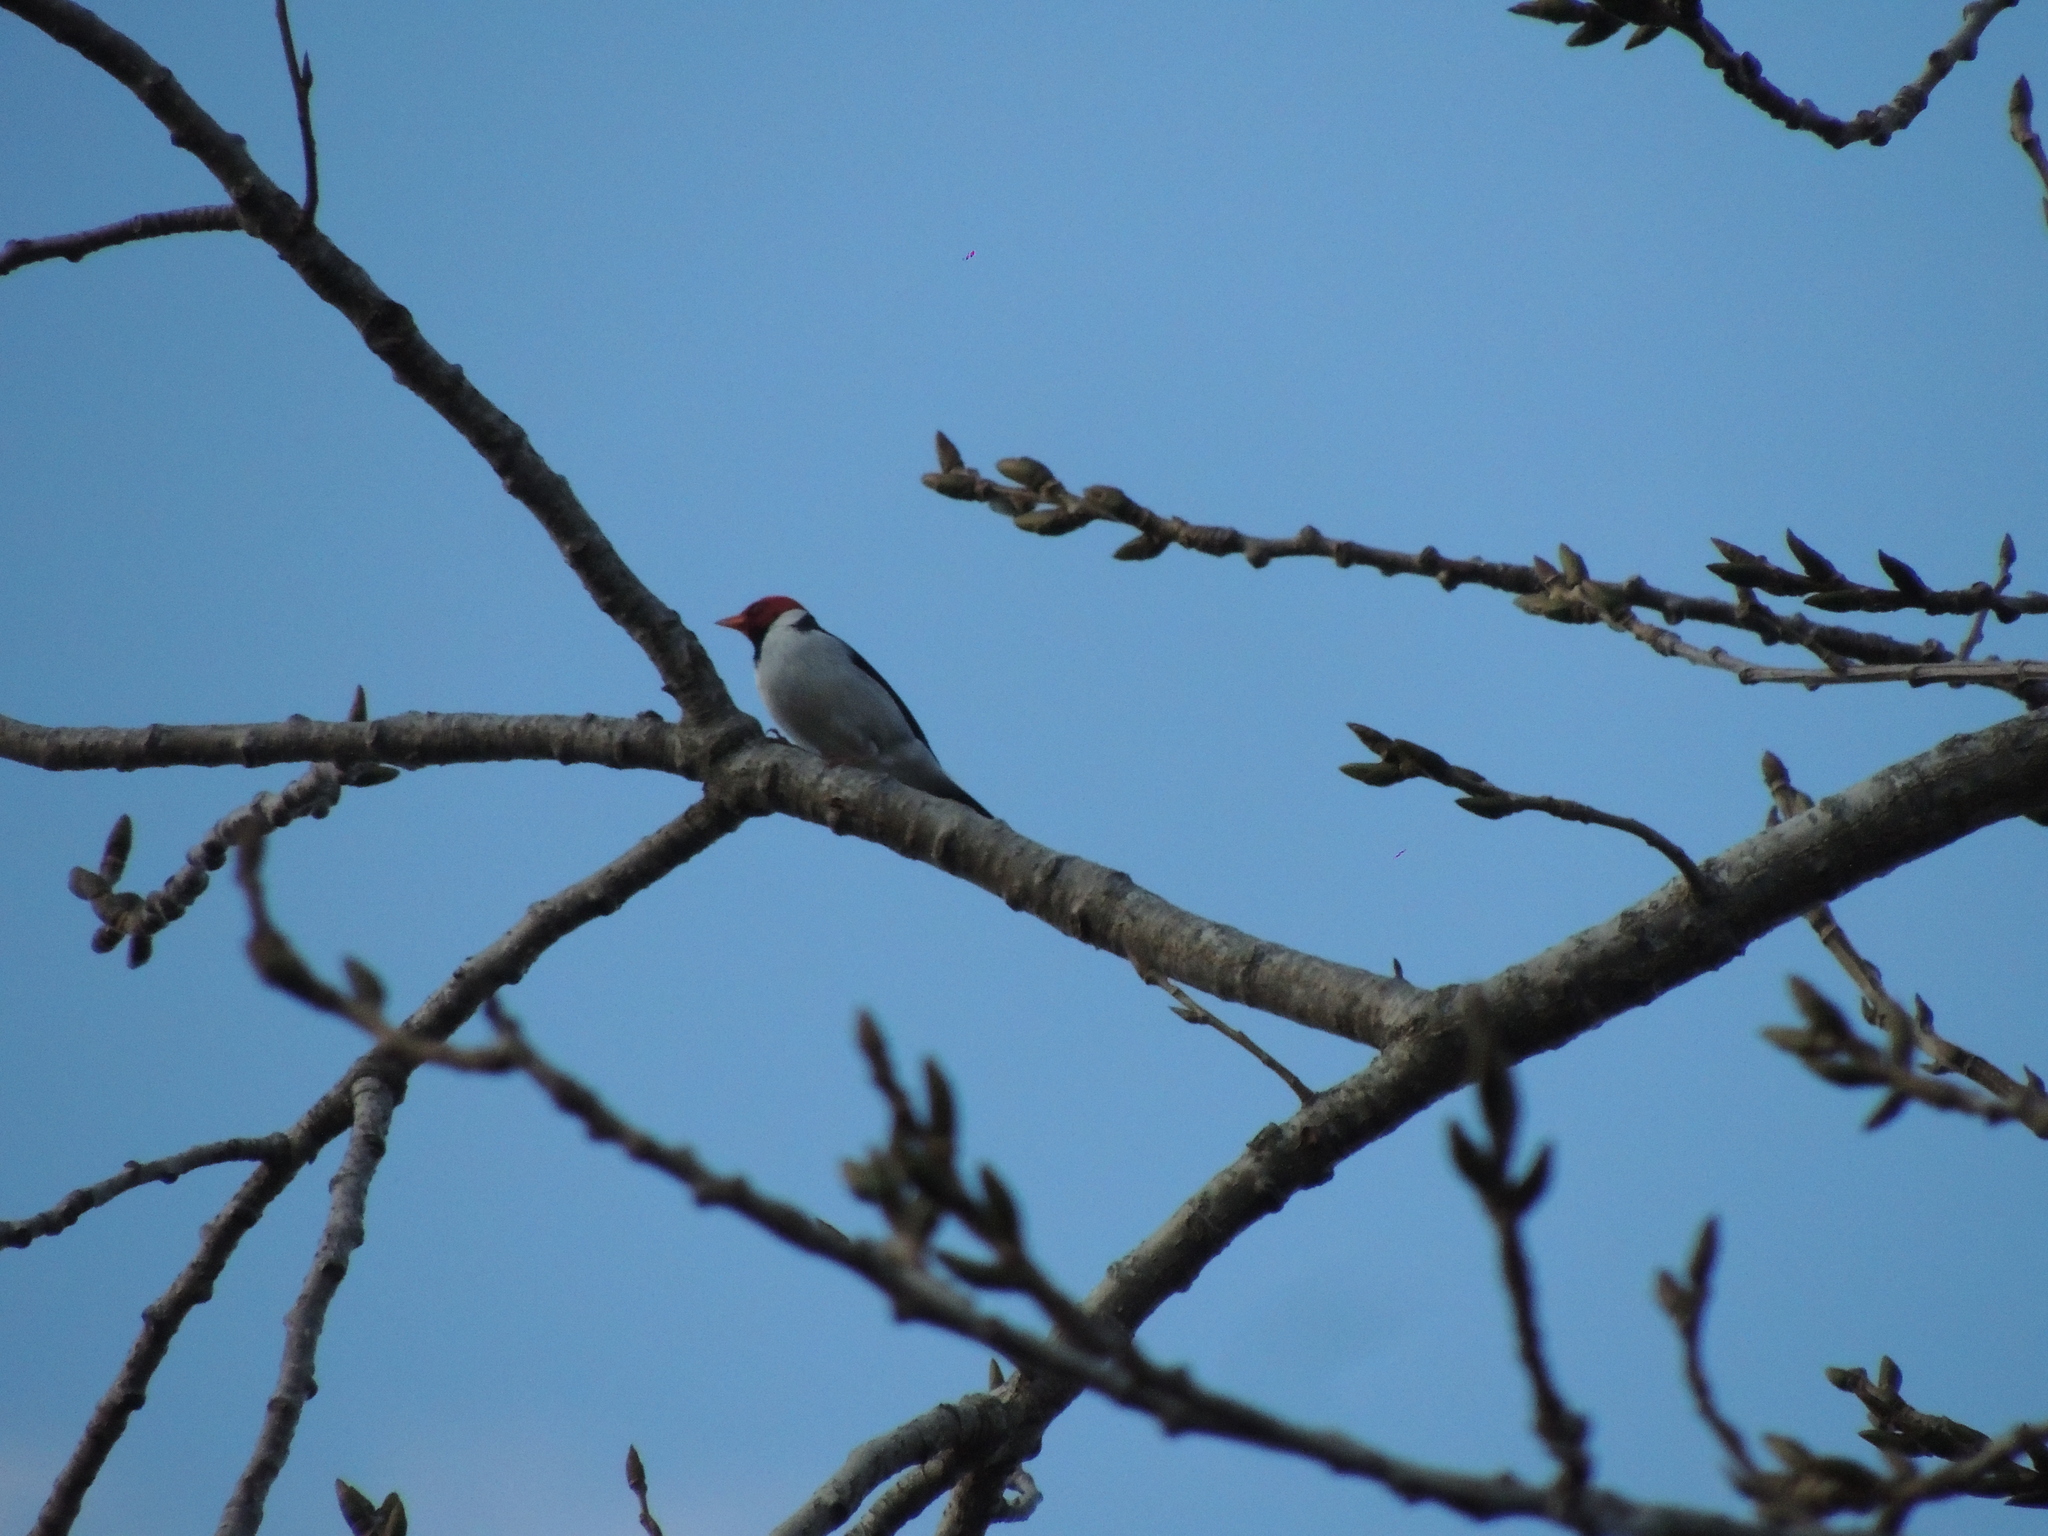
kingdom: Animalia
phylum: Chordata
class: Aves
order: Passeriformes
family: Thraupidae
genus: Paroaria
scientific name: Paroaria capitata
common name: Yellow-billed cardinal
